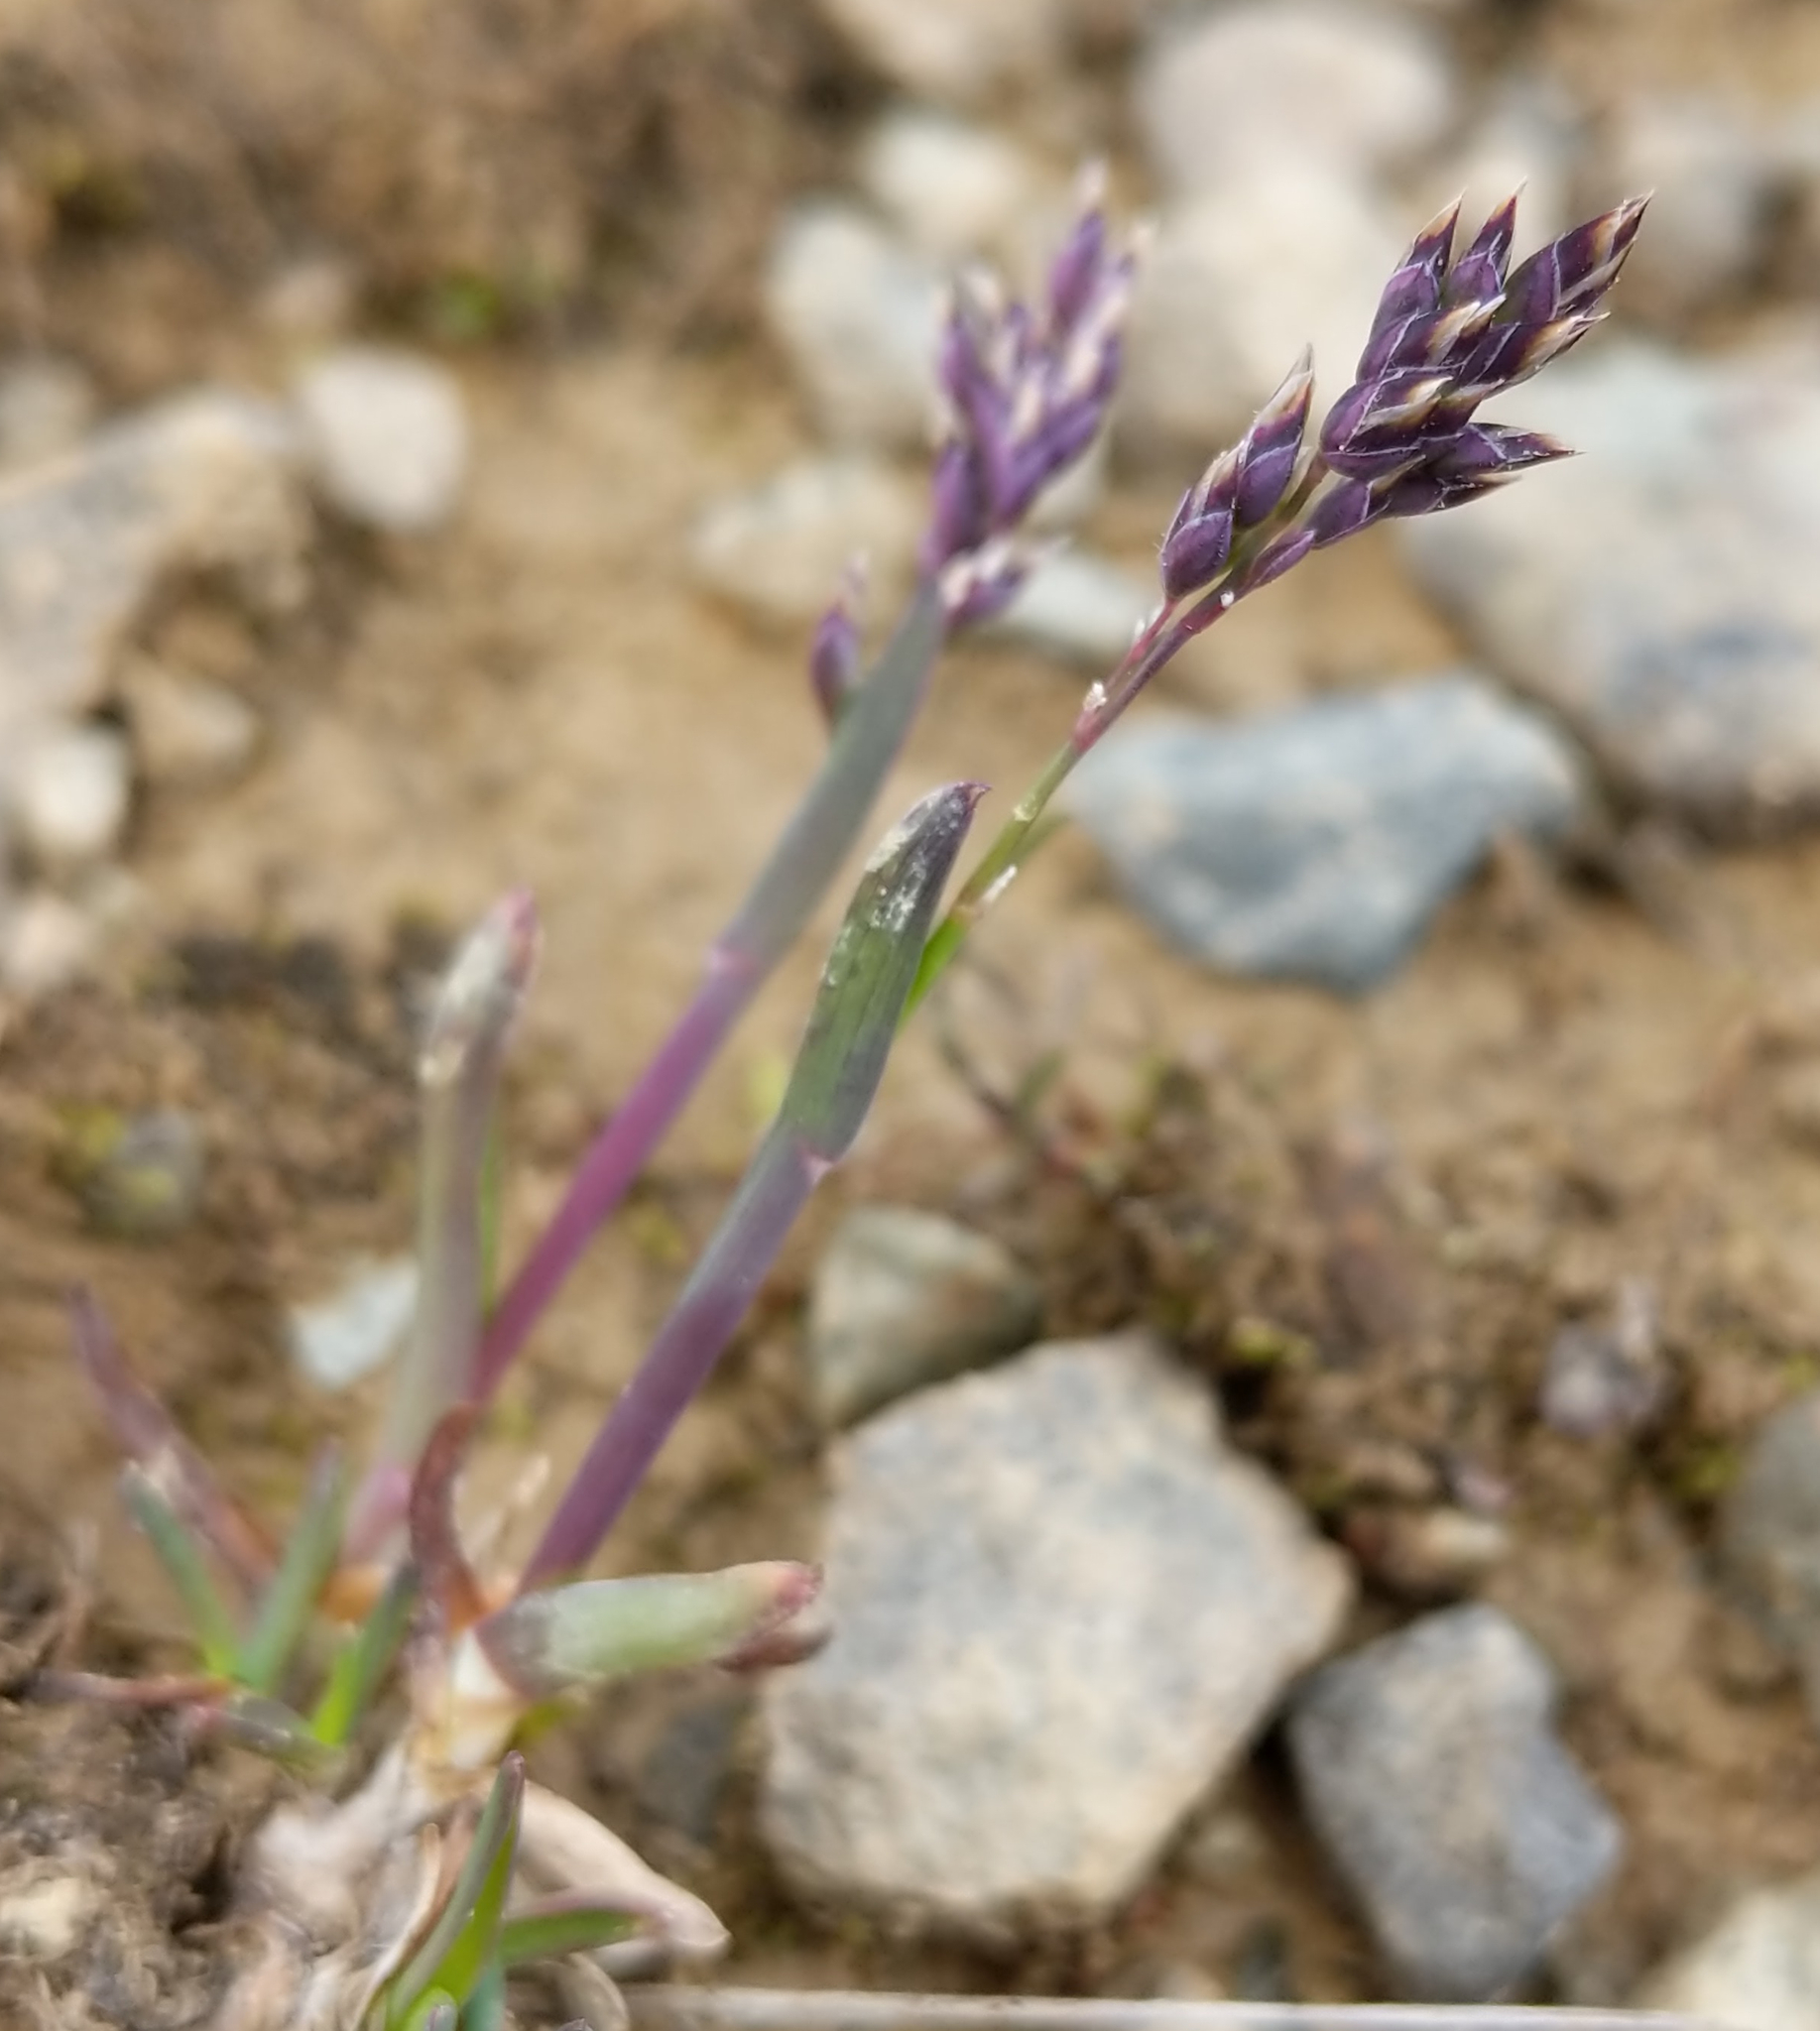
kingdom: Plantae
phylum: Tracheophyta
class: Liliopsida
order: Poales
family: Poaceae
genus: Poa
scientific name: Poa alpina
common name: Alpine bluegrass
